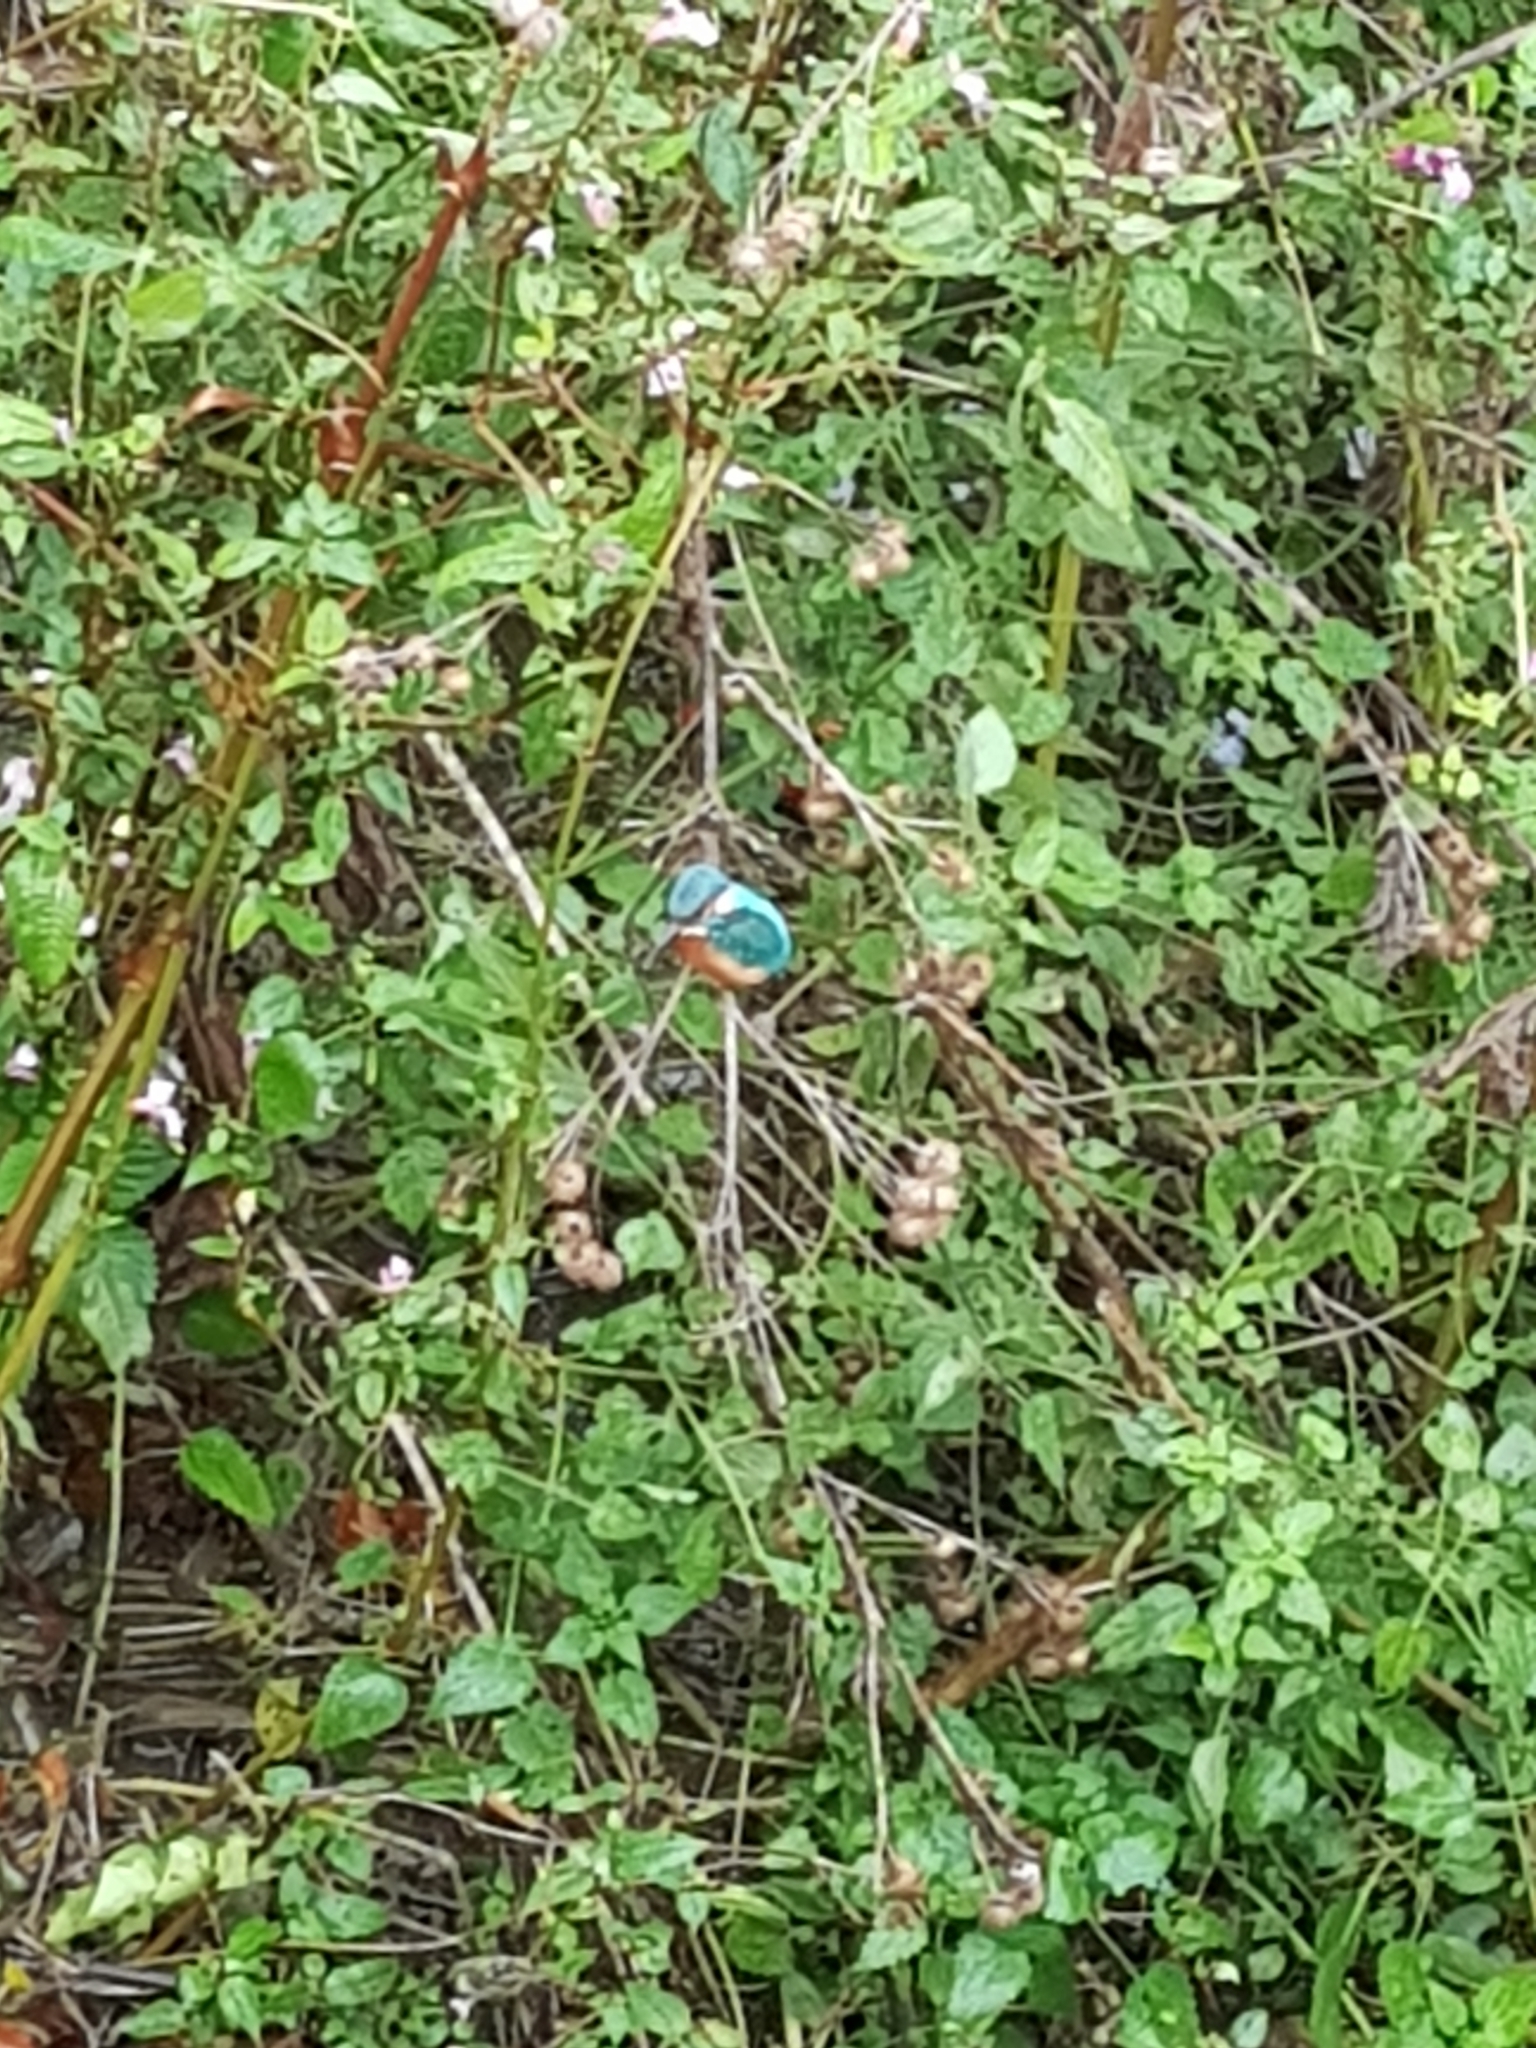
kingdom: Animalia
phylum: Chordata
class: Aves
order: Coraciiformes
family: Alcedinidae
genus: Alcedo
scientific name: Alcedo atthis
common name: Common kingfisher
